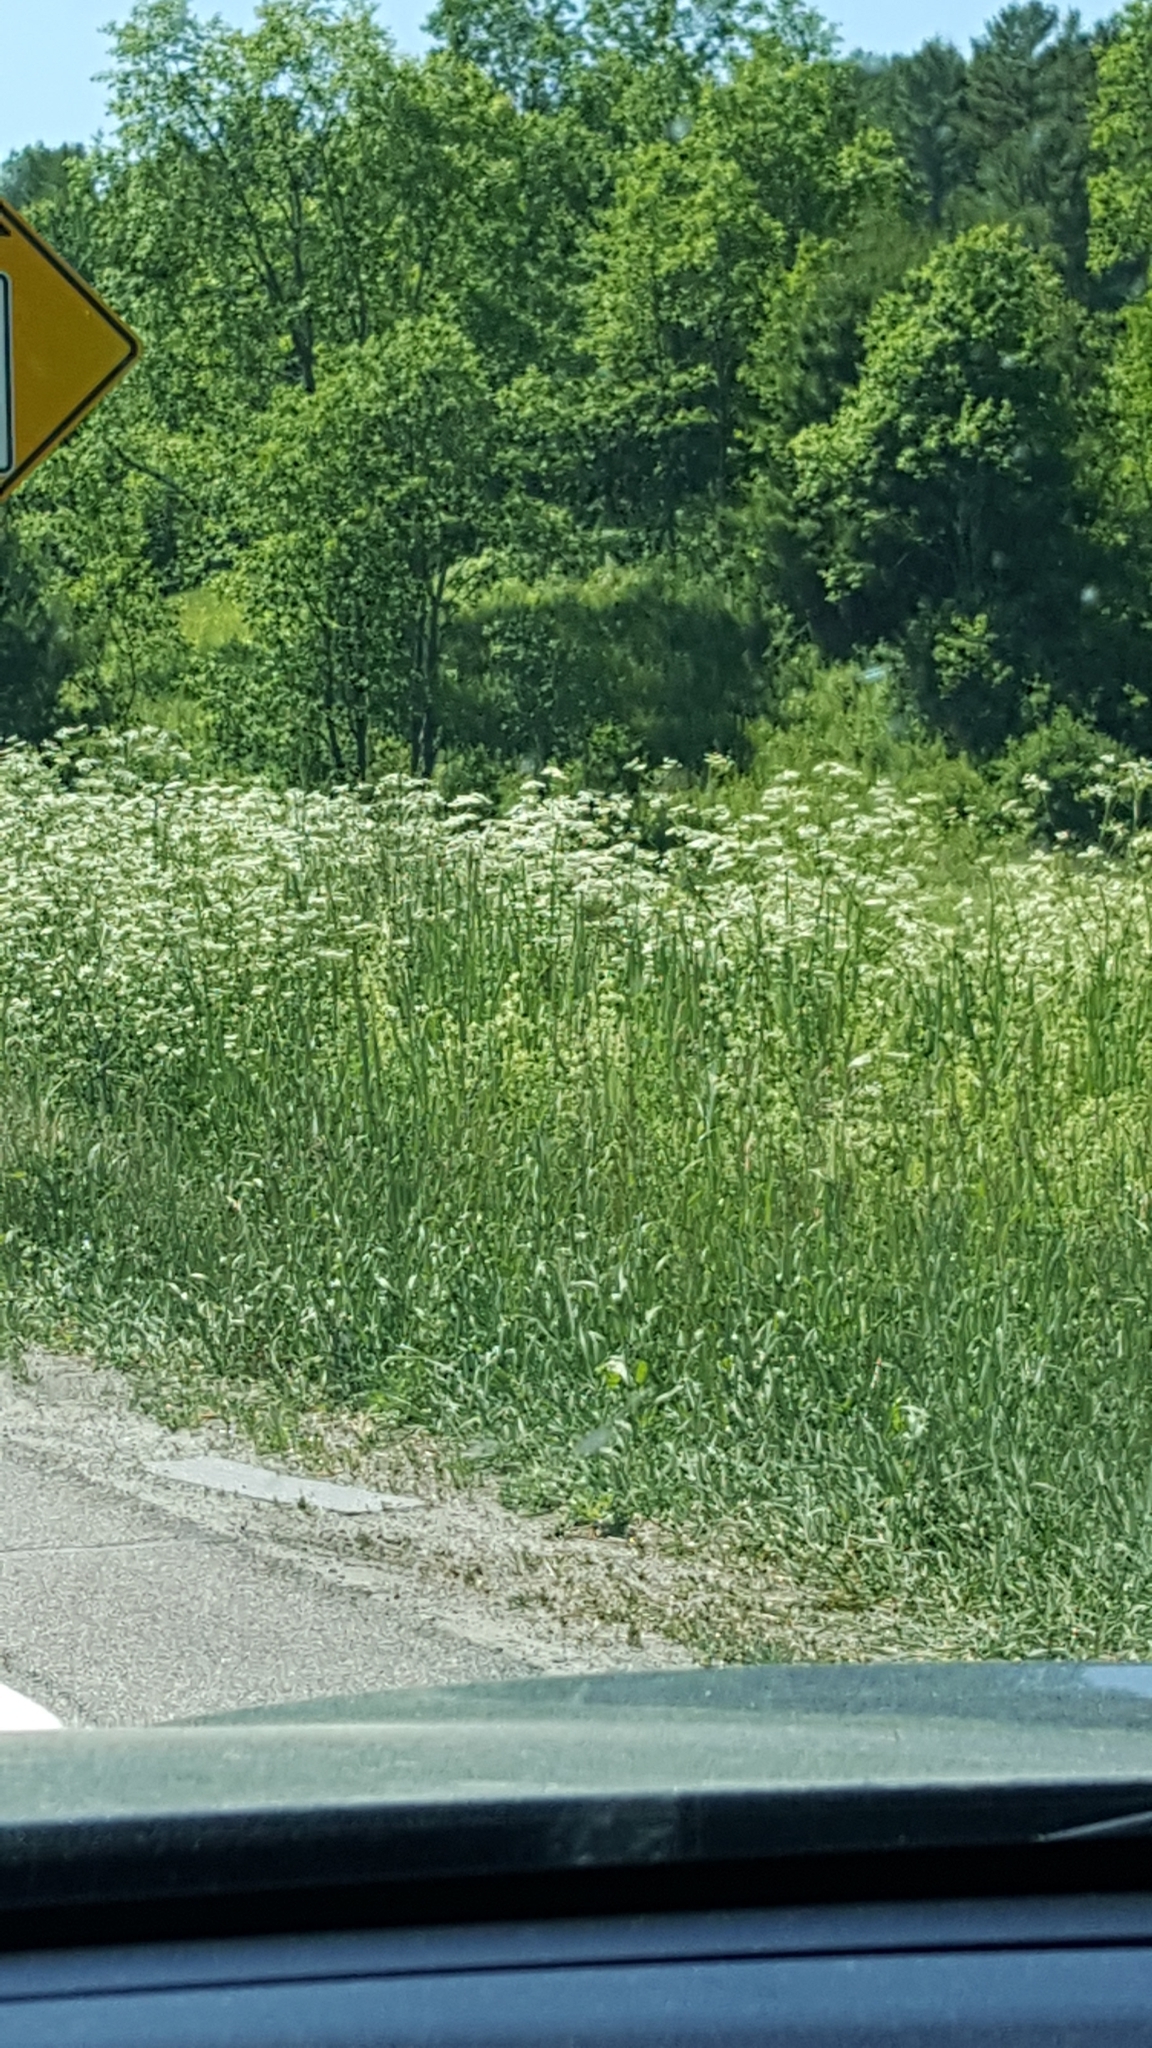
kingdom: Plantae
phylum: Tracheophyta
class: Magnoliopsida
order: Apiales
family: Apiaceae
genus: Anthriscus
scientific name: Anthriscus sylvestris
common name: Cow parsley
